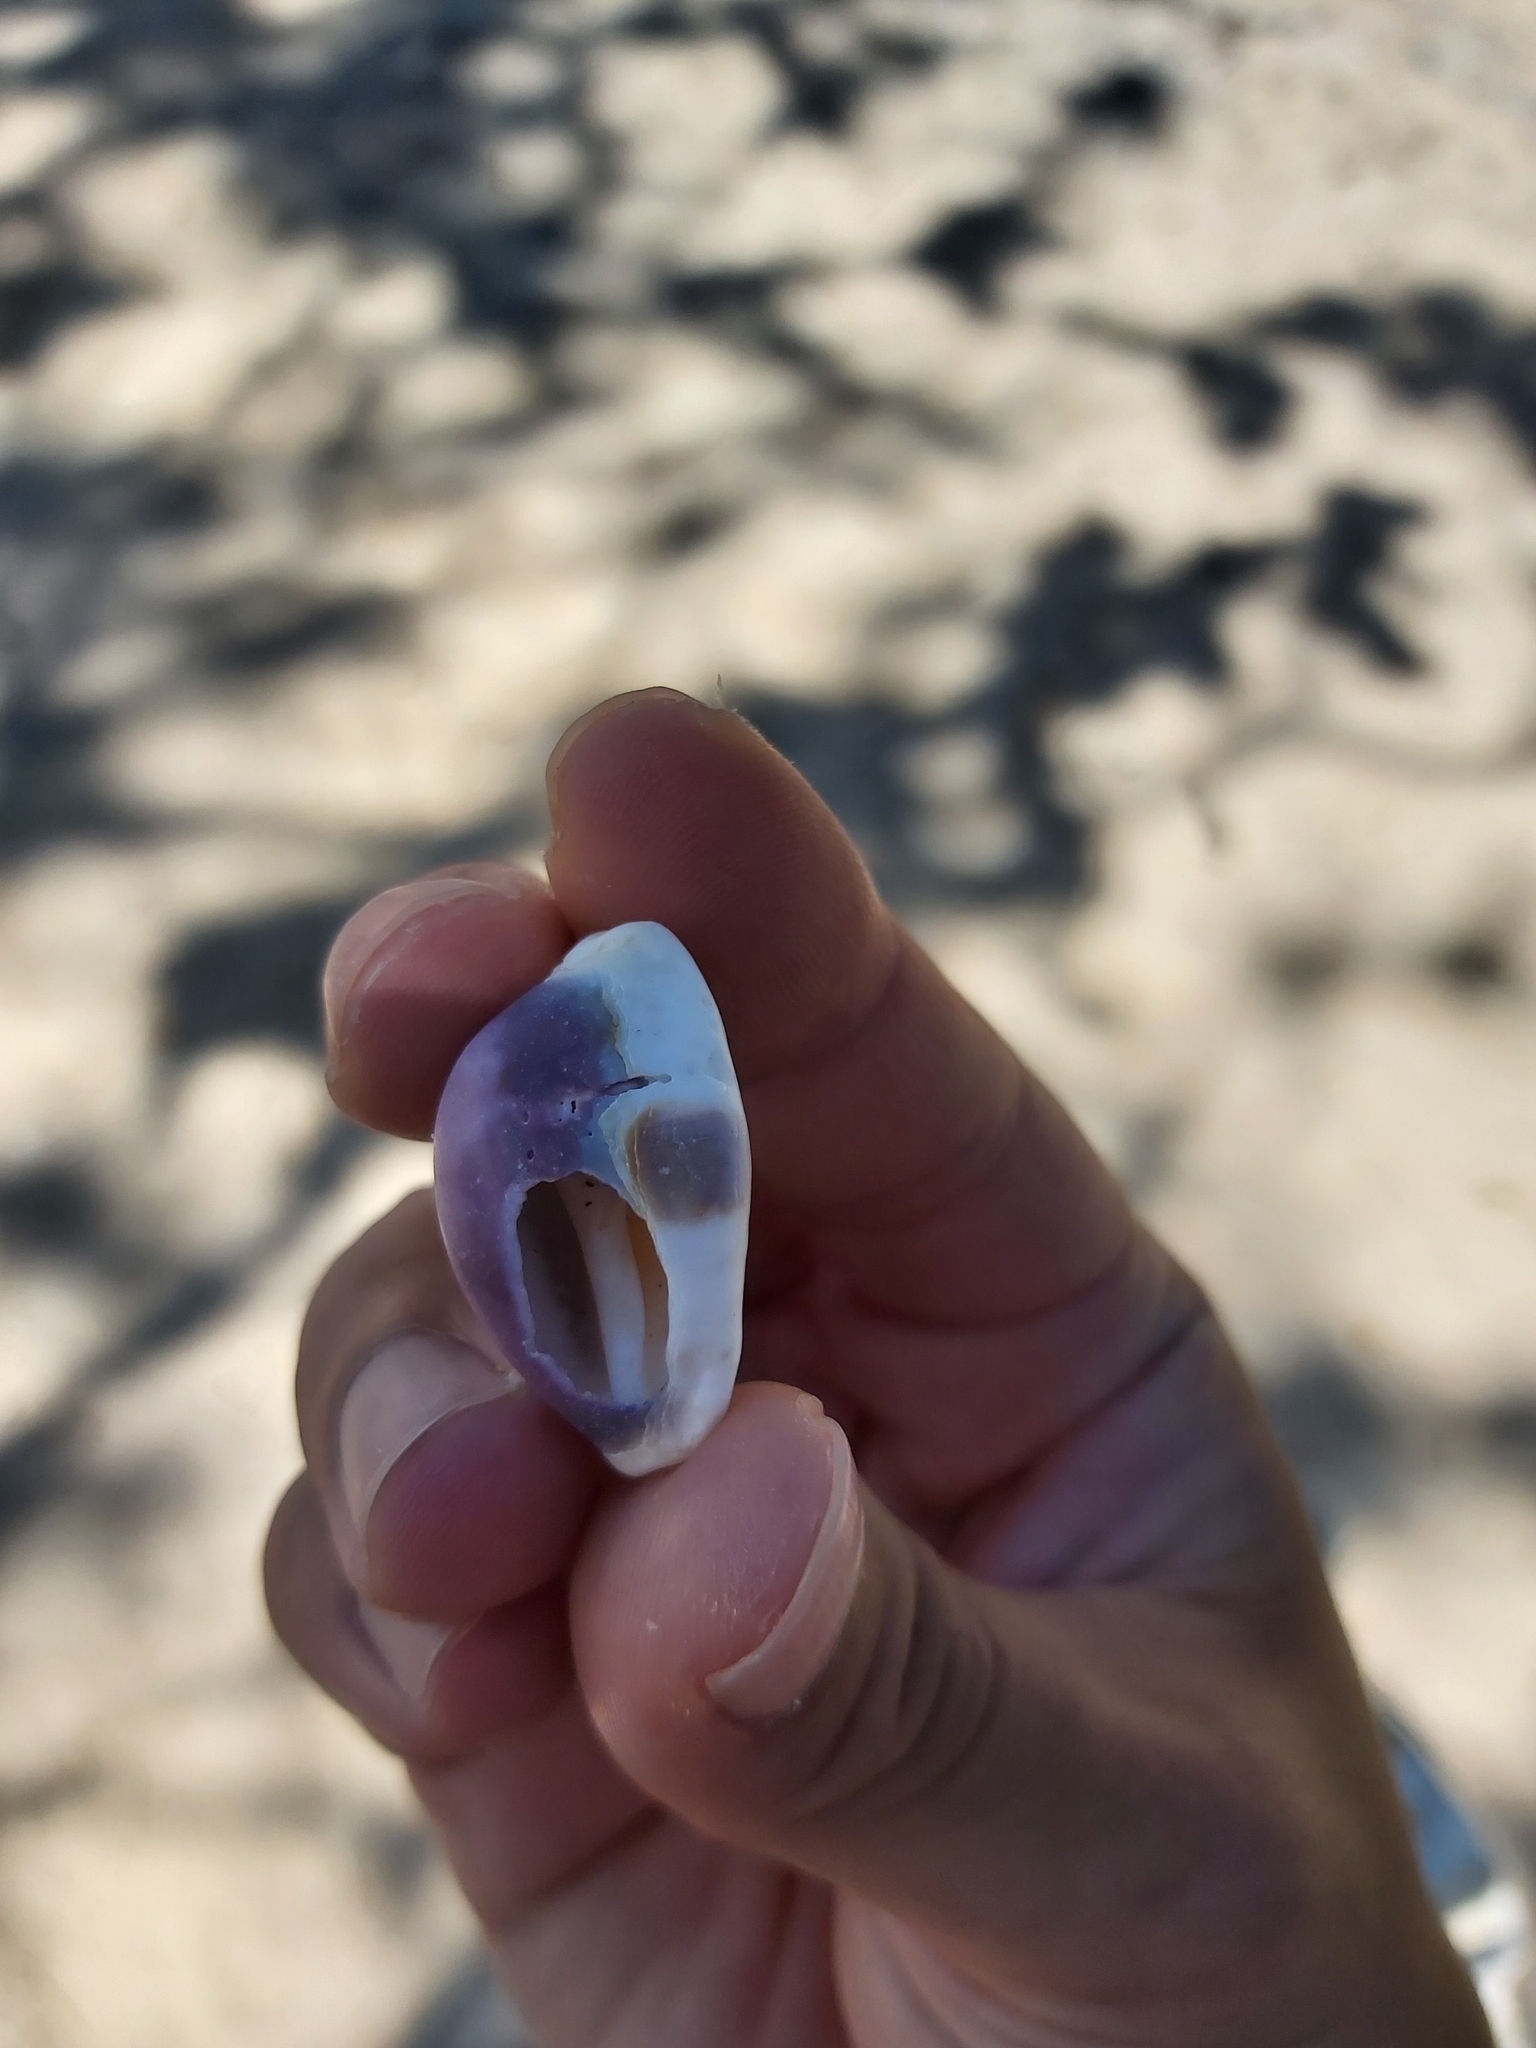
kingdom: Animalia
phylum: Mollusca
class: Gastropoda
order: Littorinimorpha
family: Cypraeidae
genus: Naria
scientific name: Naria erosa
